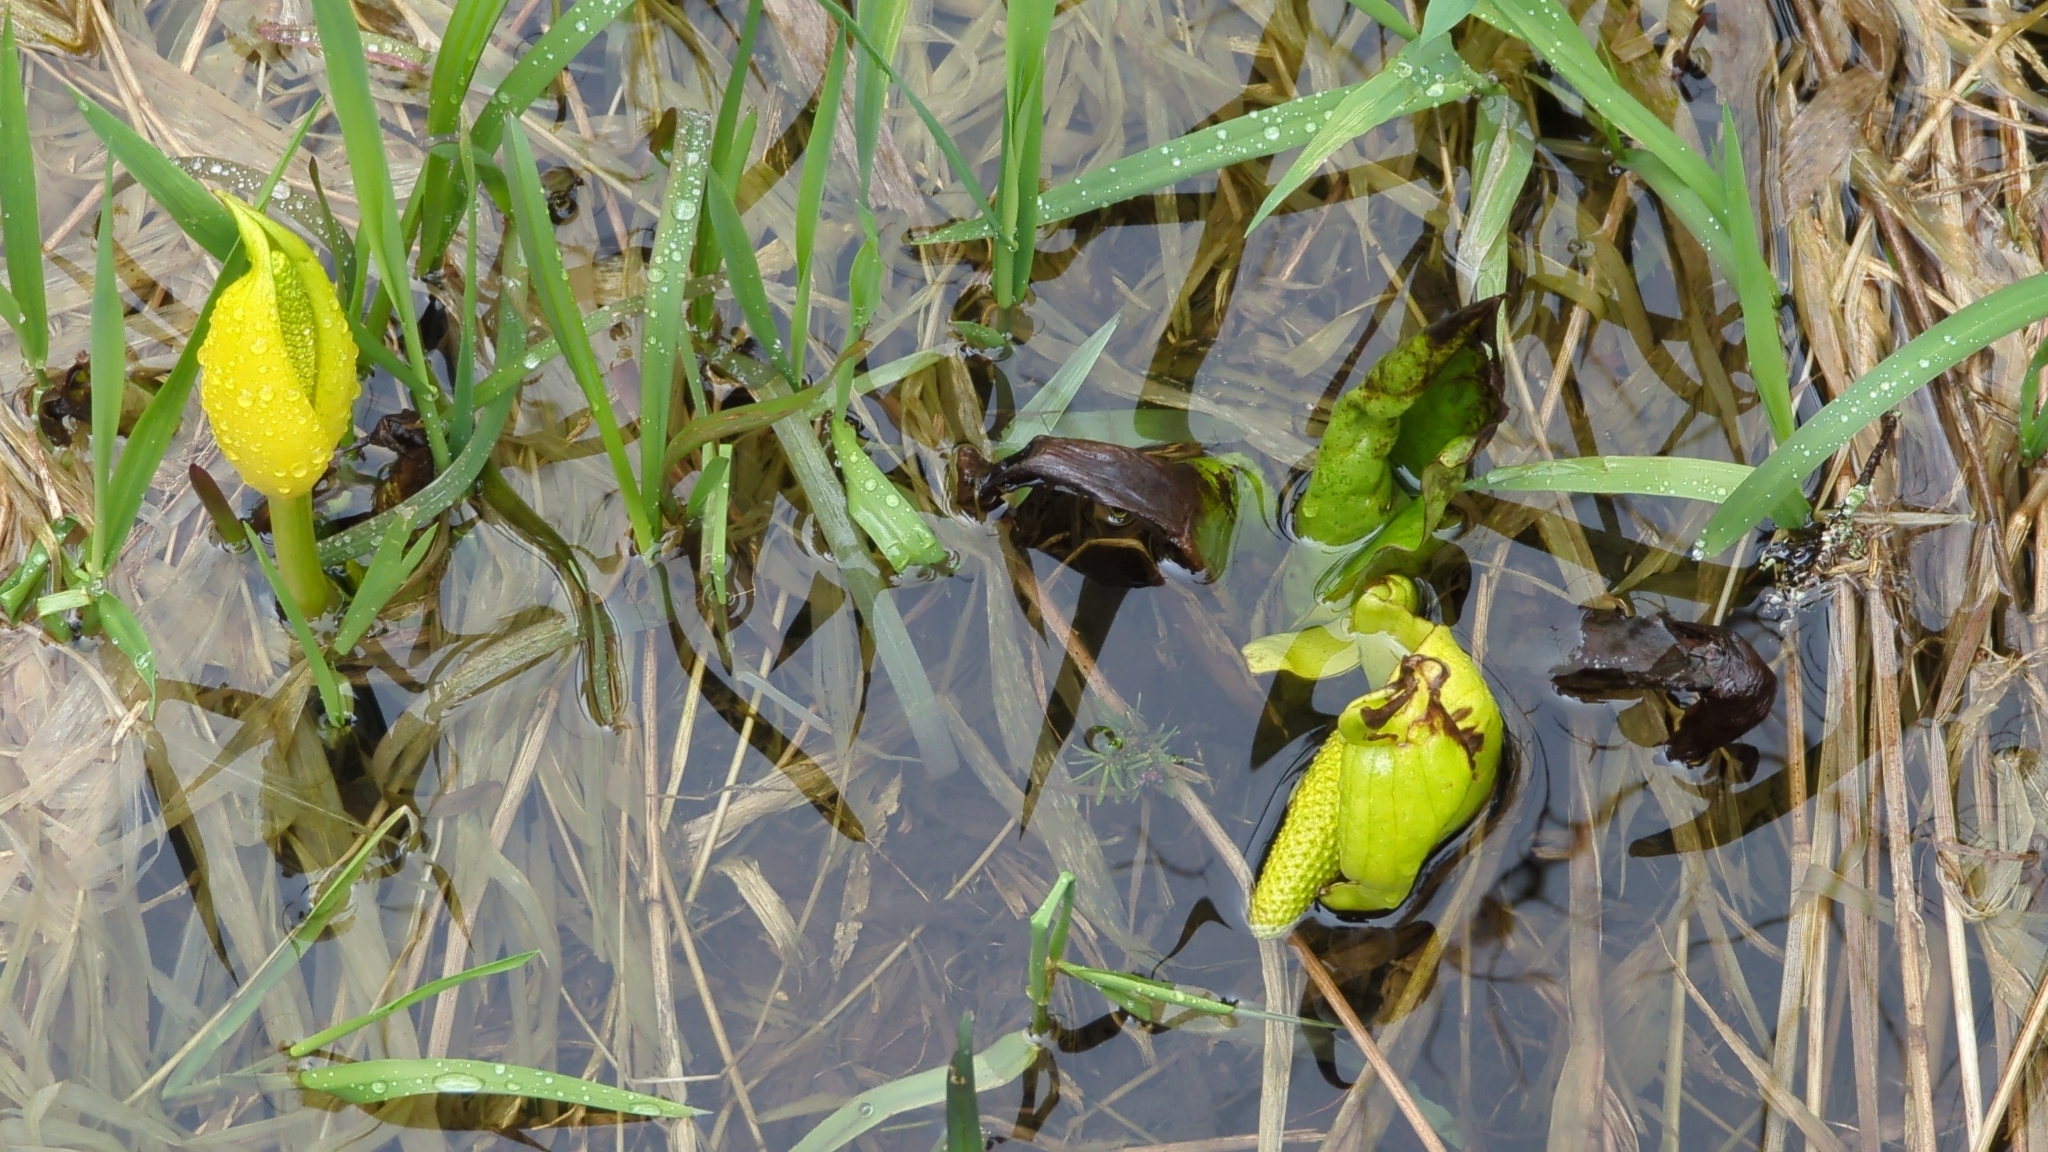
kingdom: Plantae
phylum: Tracheophyta
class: Liliopsida
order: Alismatales
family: Araceae
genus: Lysichiton
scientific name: Lysichiton americanus
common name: American skunk cabbage
